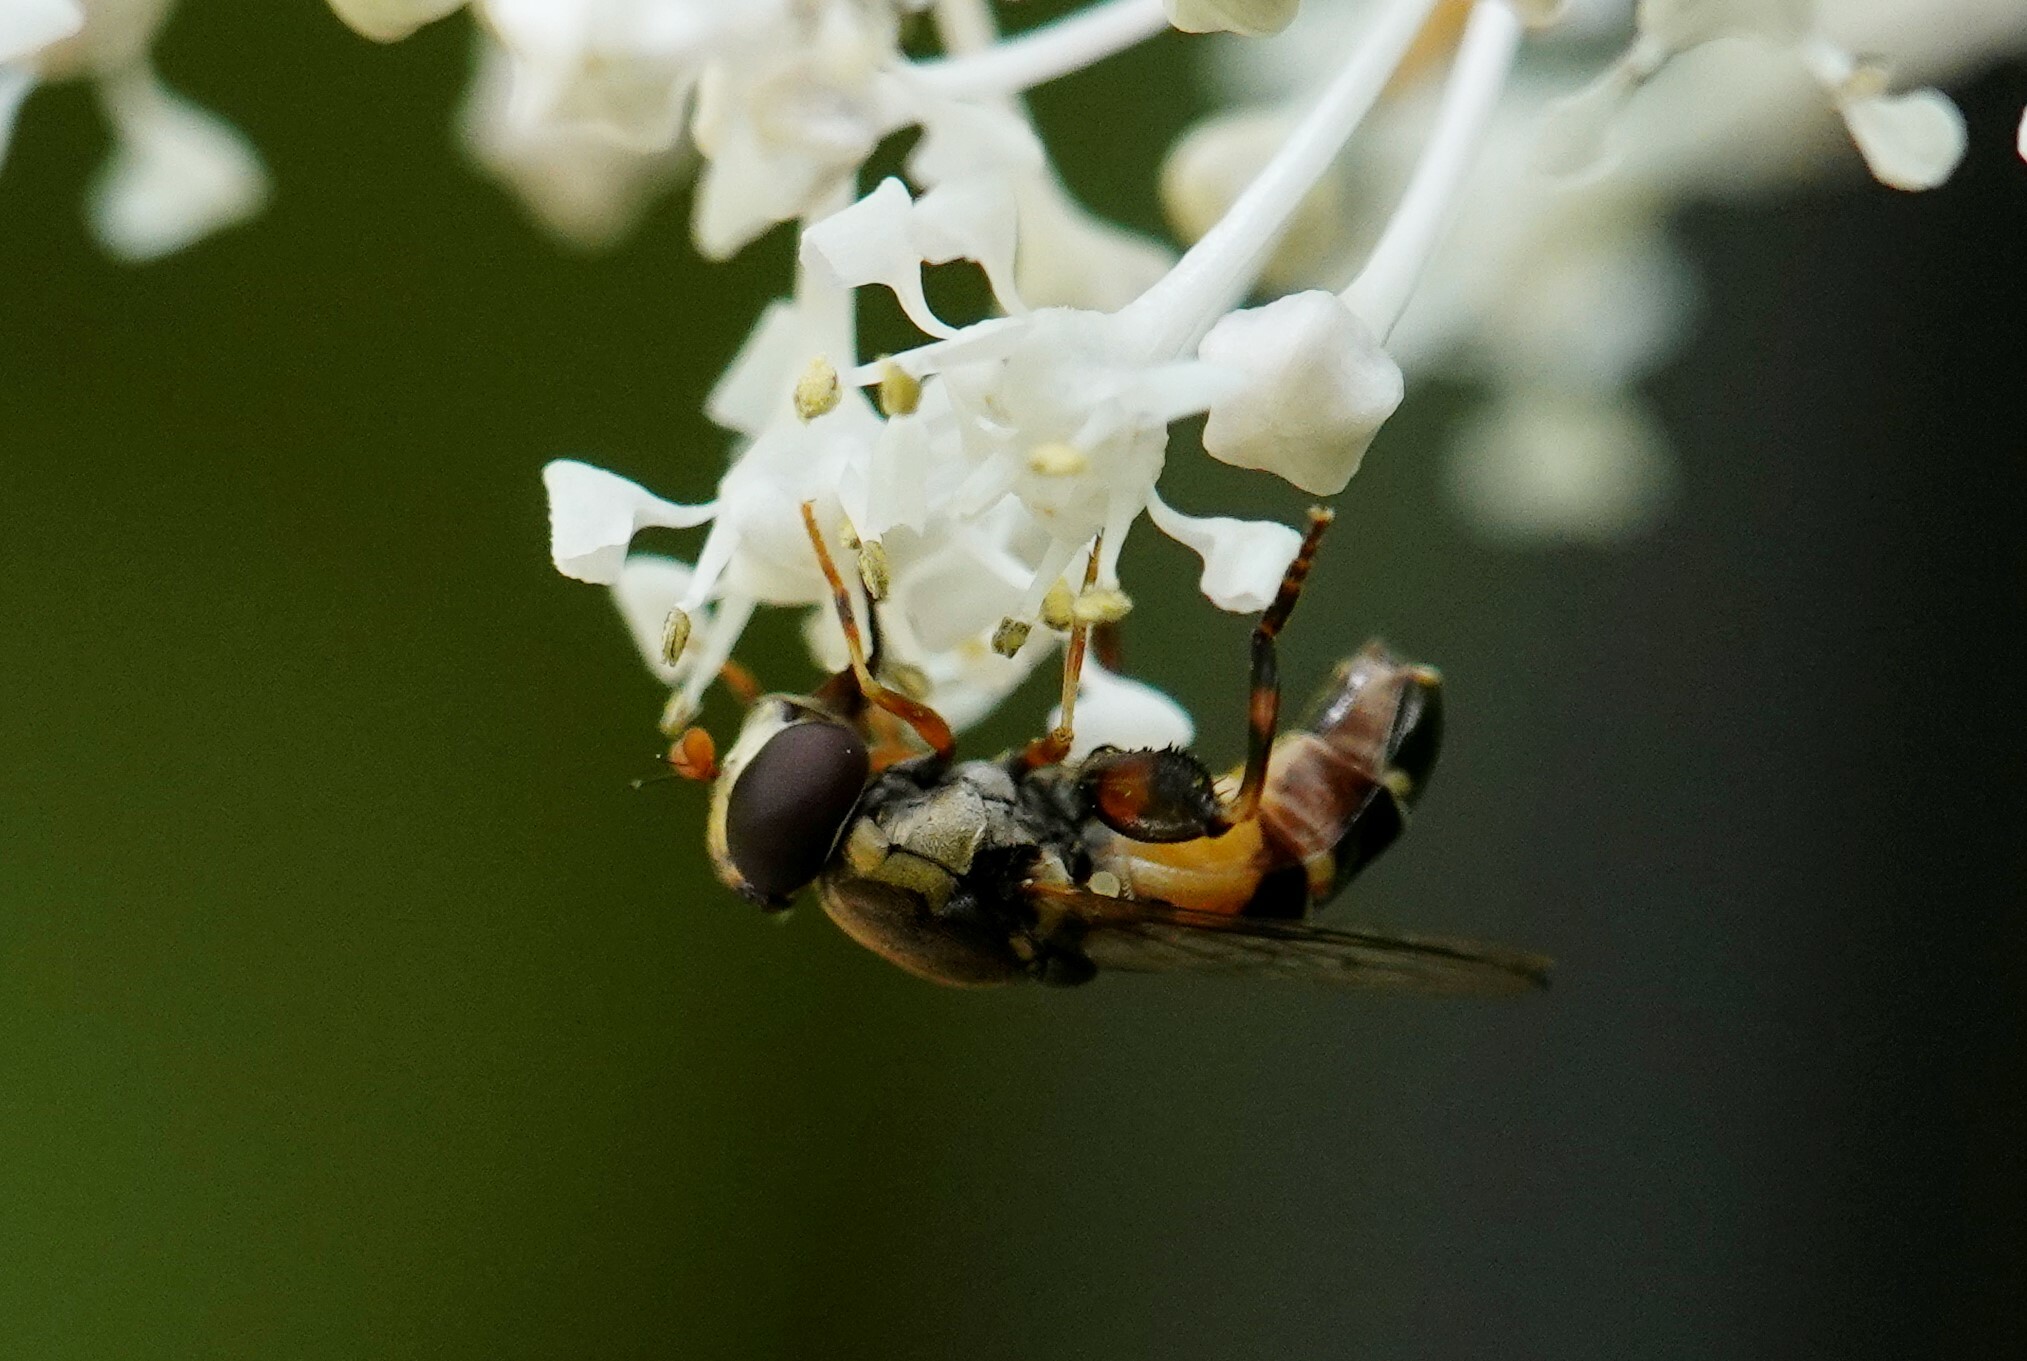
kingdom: Animalia
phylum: Arthropoda
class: Insecta
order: Diptera
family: Syrphidae
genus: Syritta
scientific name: Syritta pipiens
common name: Hover fly
